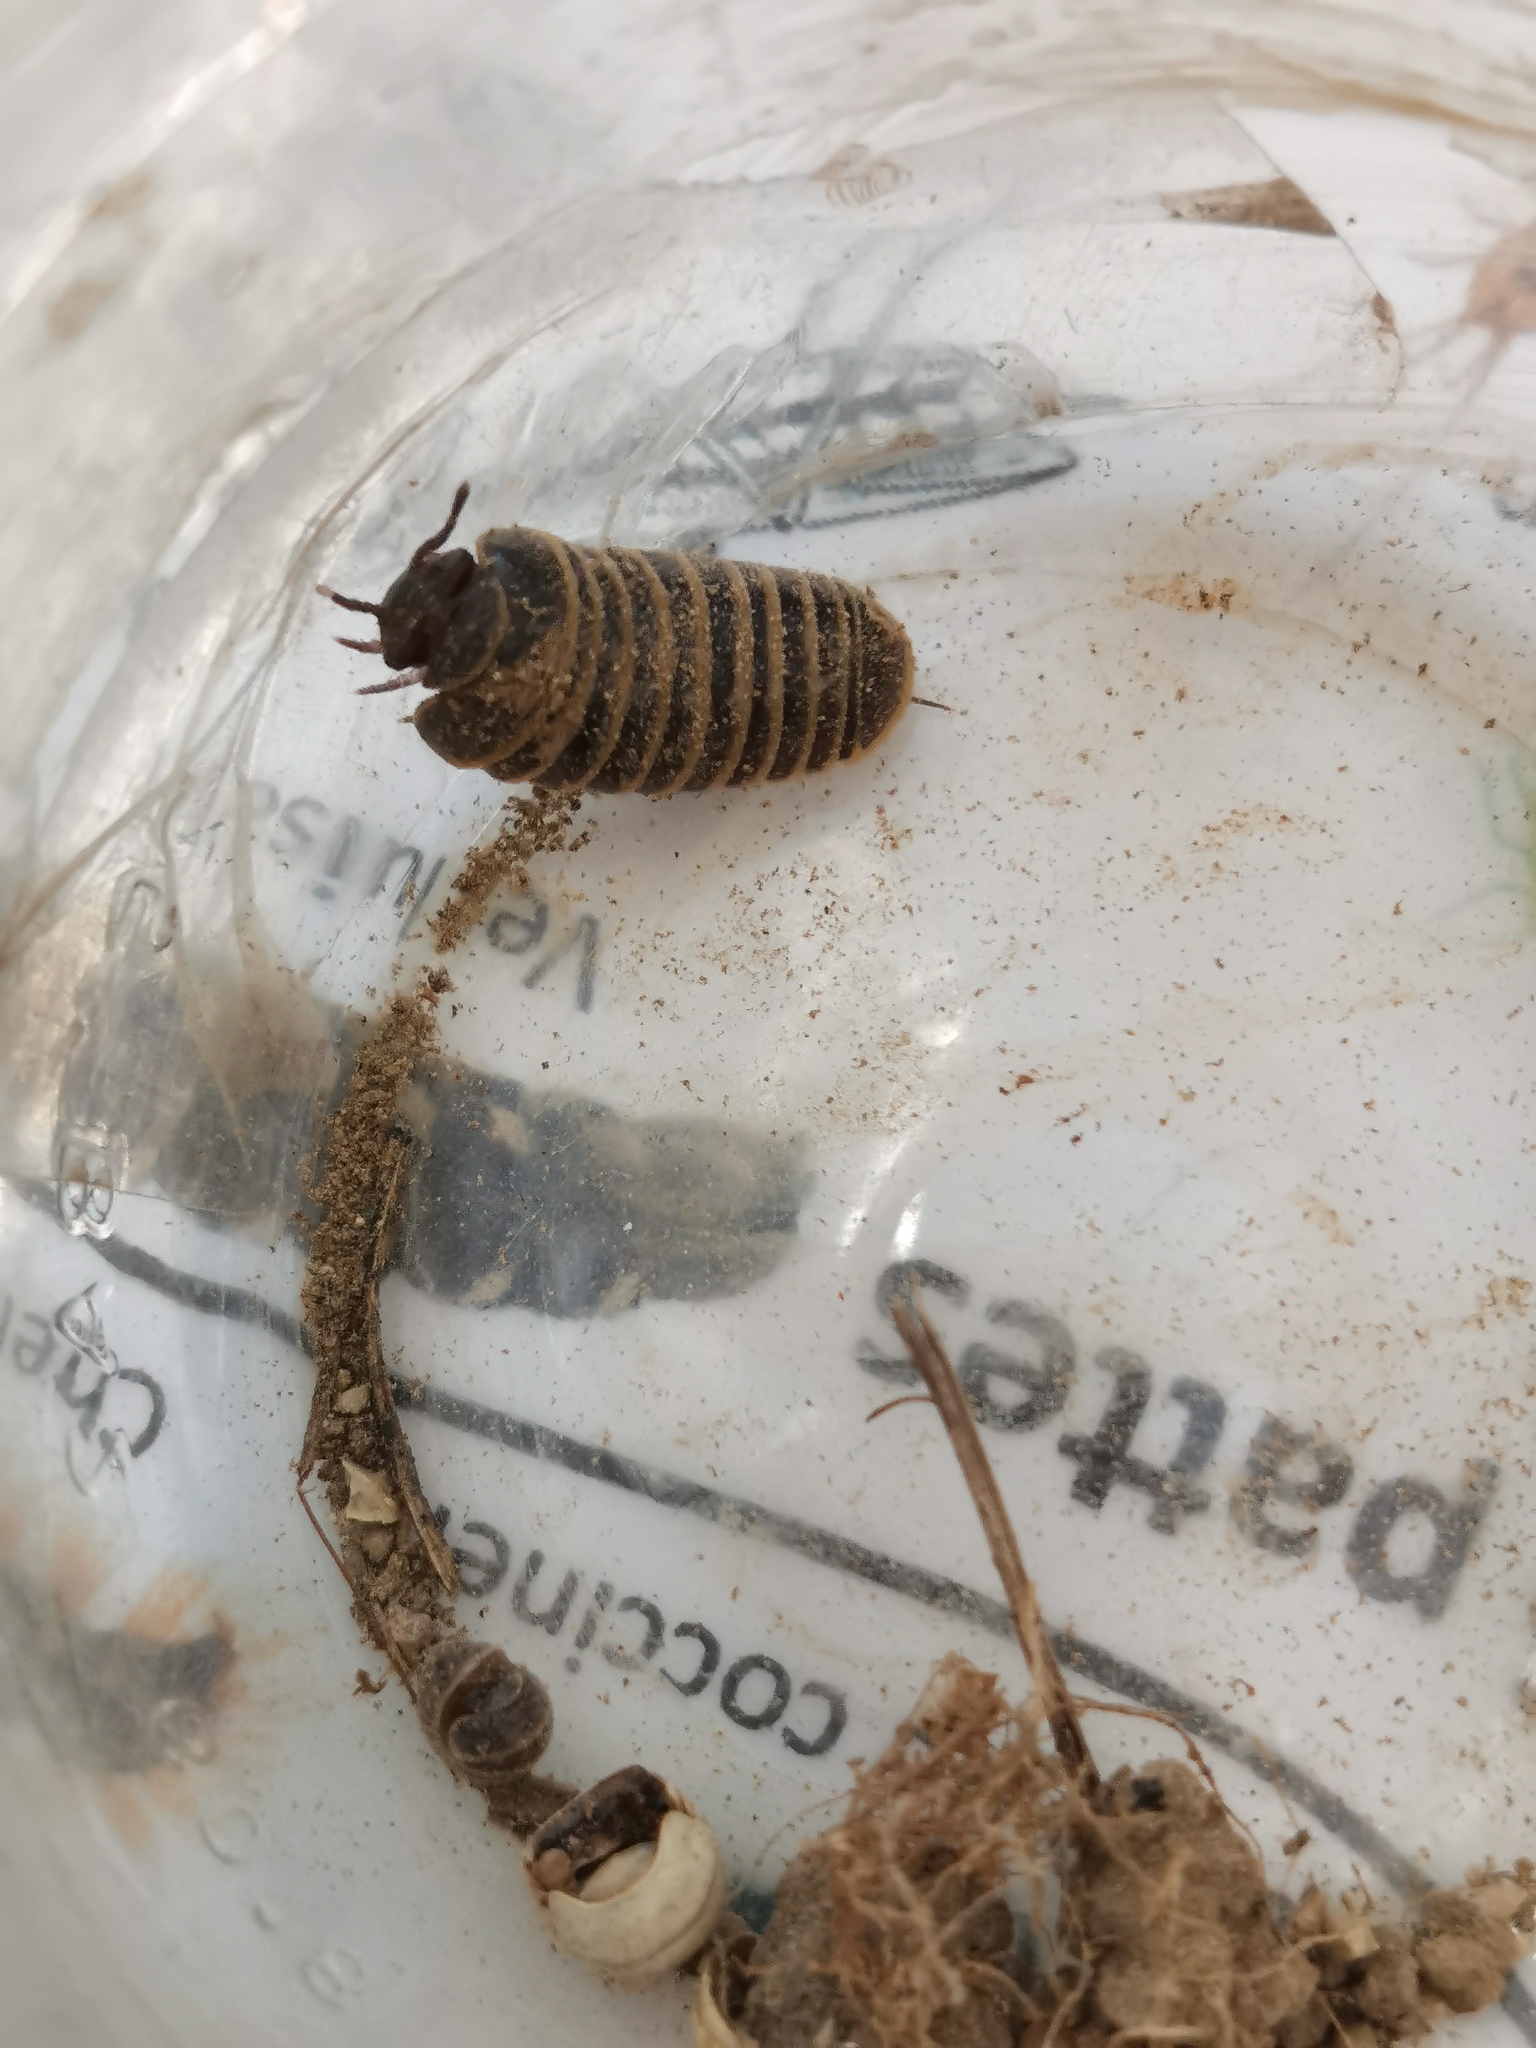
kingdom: Animalia
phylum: Arthropoda
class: Diplopoda
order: Glomerida
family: Glomeridae
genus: Glomeris
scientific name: Glomeris marginata
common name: Bordered pill millipede
